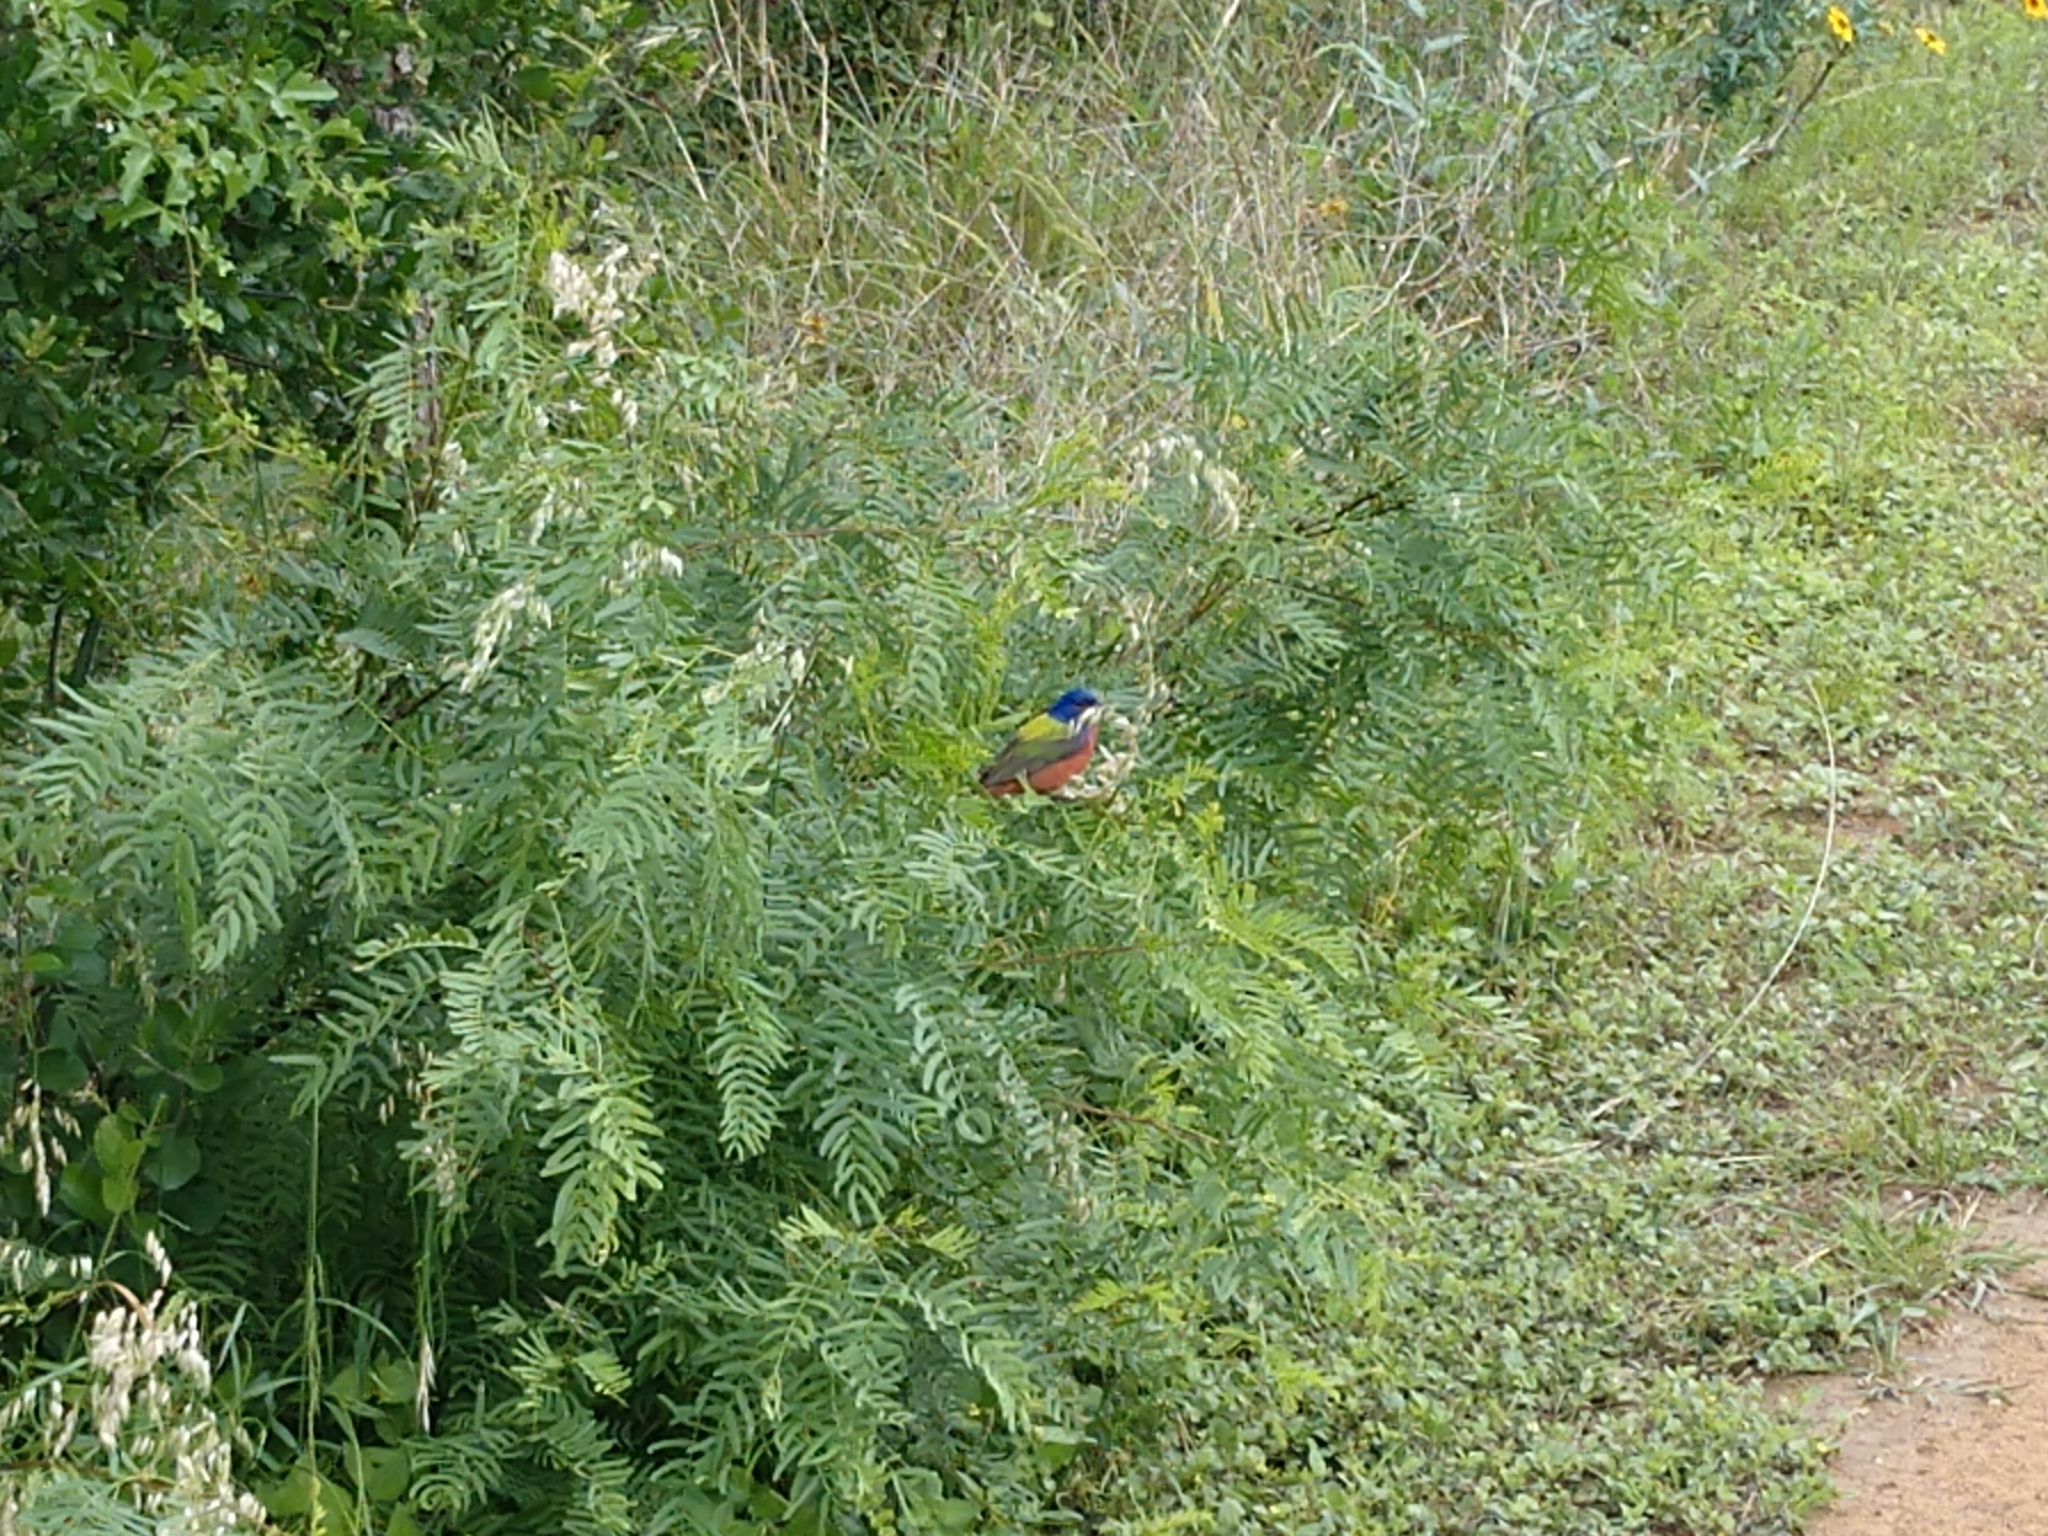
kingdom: Animalia
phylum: Chordata
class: Aves
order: Passeriformes
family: Cardinalidae
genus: Passerina
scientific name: Passerina ciris
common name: Painted bunting
